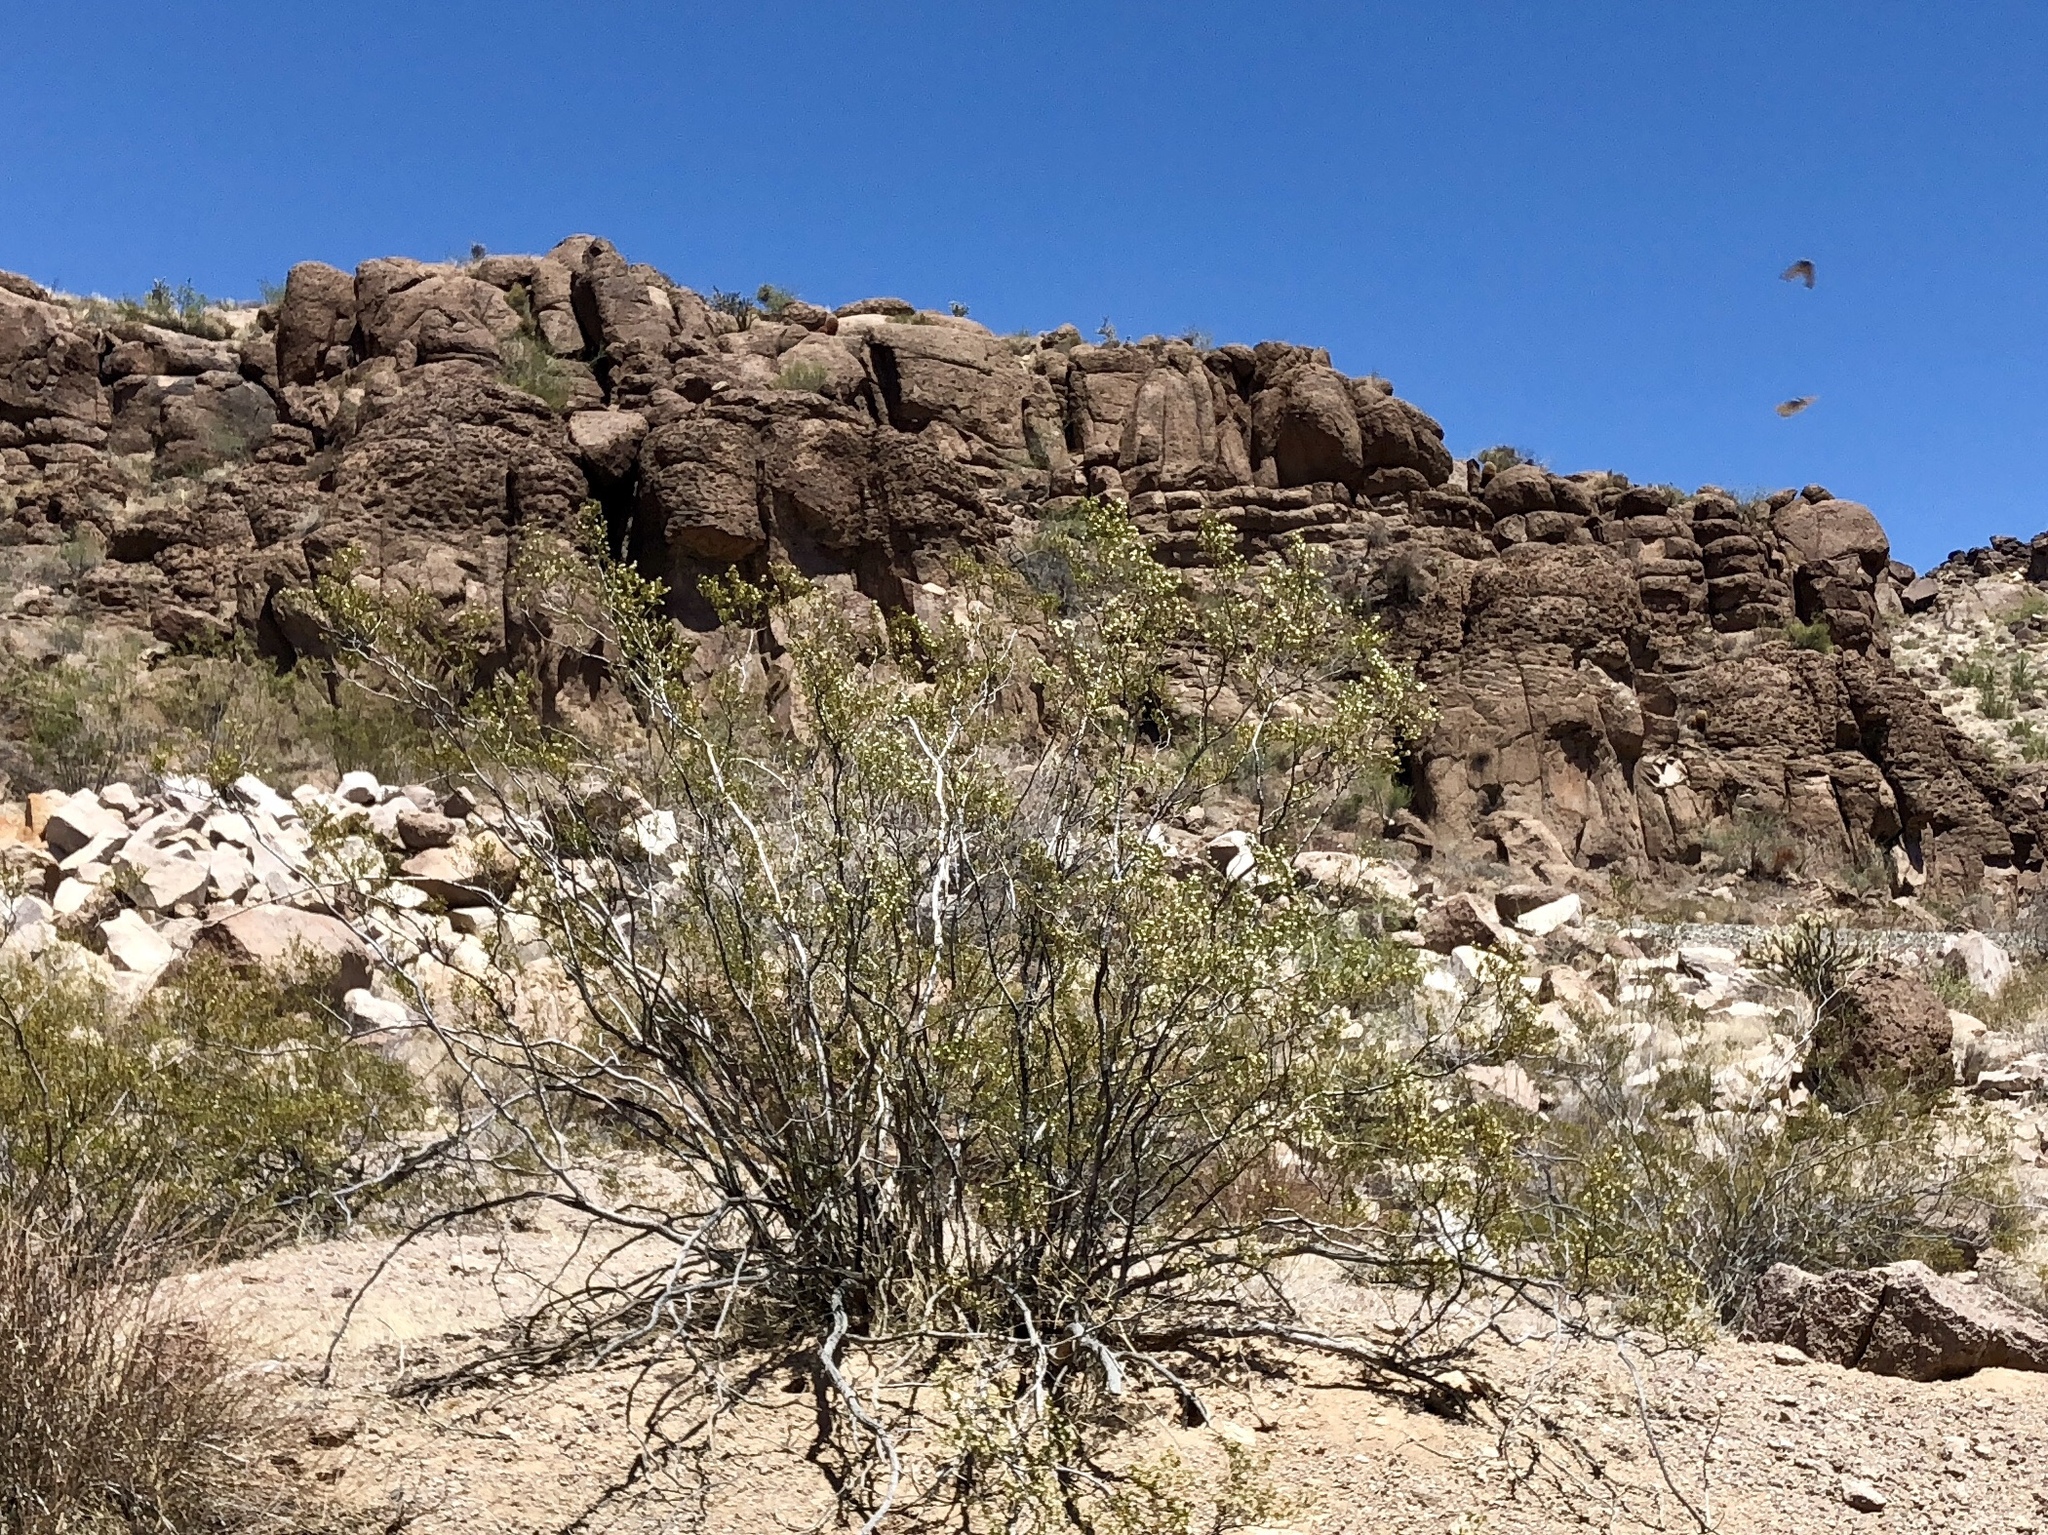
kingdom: Plantae
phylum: Tracheophyta
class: Magnoliopsida
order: Zygophyllales
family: Zygophyllaceae
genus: Larrea
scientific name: Larrea tridentata
